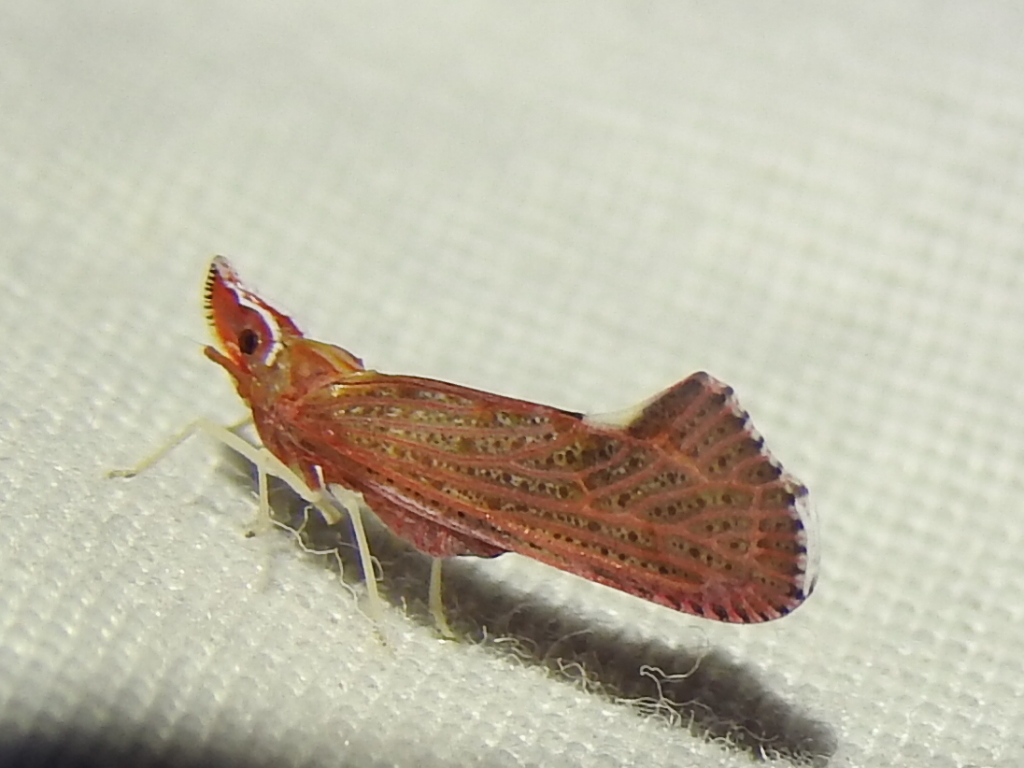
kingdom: Animalia
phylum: Arthropoda
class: Insecta
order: Hemiptera
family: Derbidae
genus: Apache
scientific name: Apache degeeri
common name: Red-fanned planthopper
